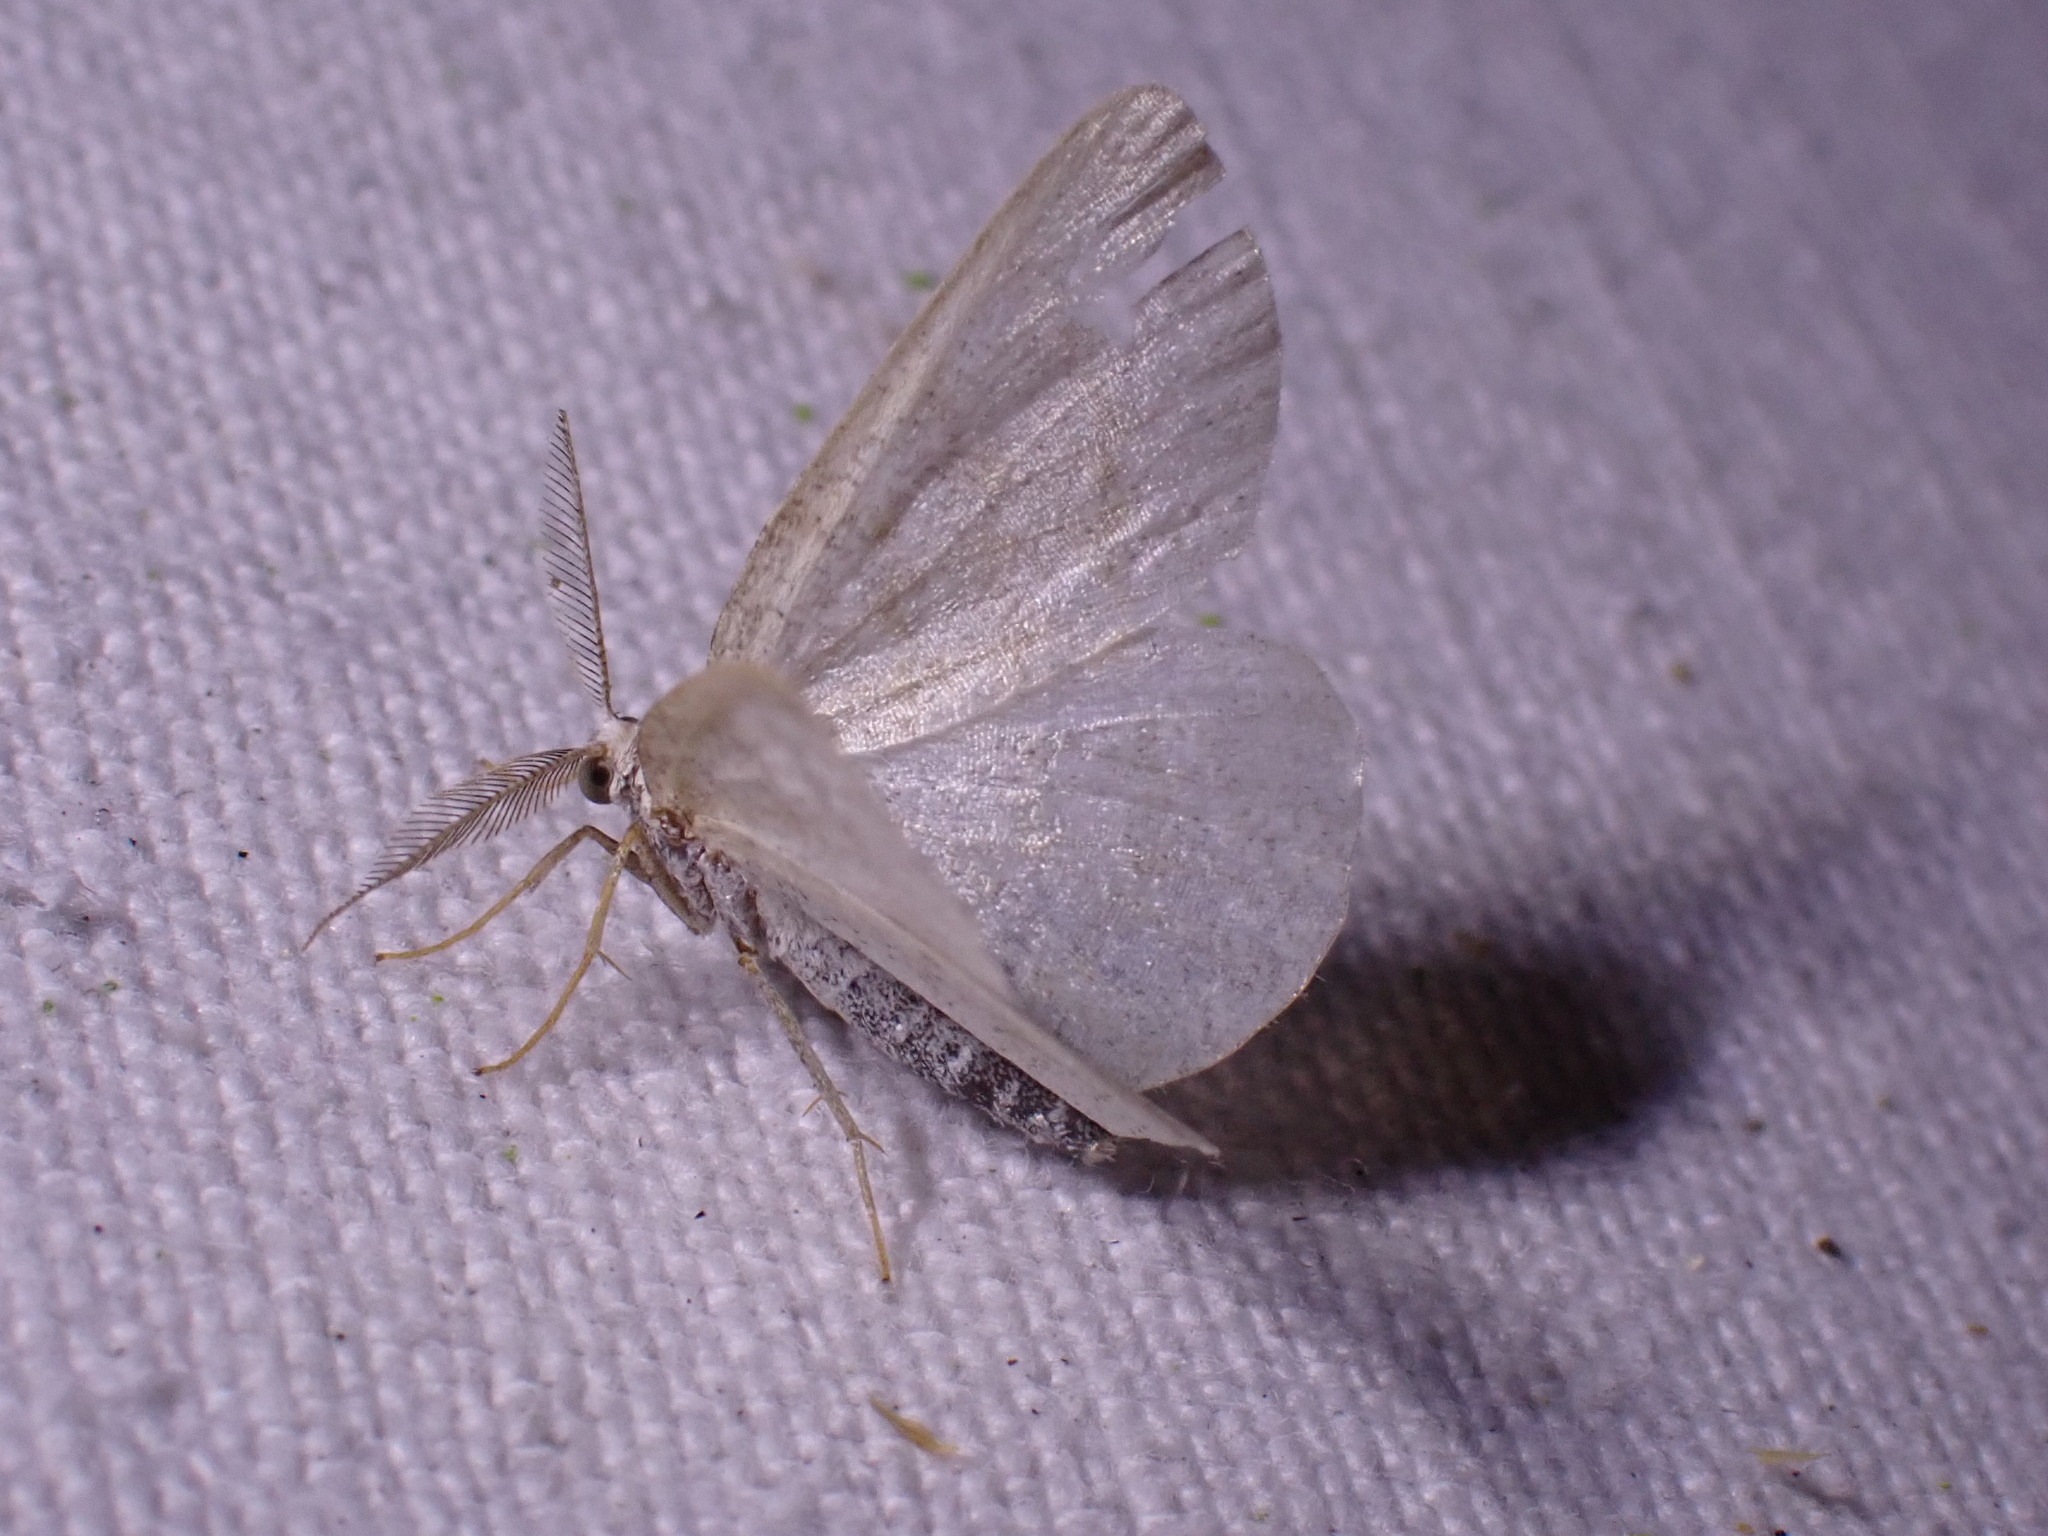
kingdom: Animalia
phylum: Arthropoda
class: Insecta
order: Lepidoptera
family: Geometridae
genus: Cabera
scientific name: Cabera exanthemata
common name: Common wave
